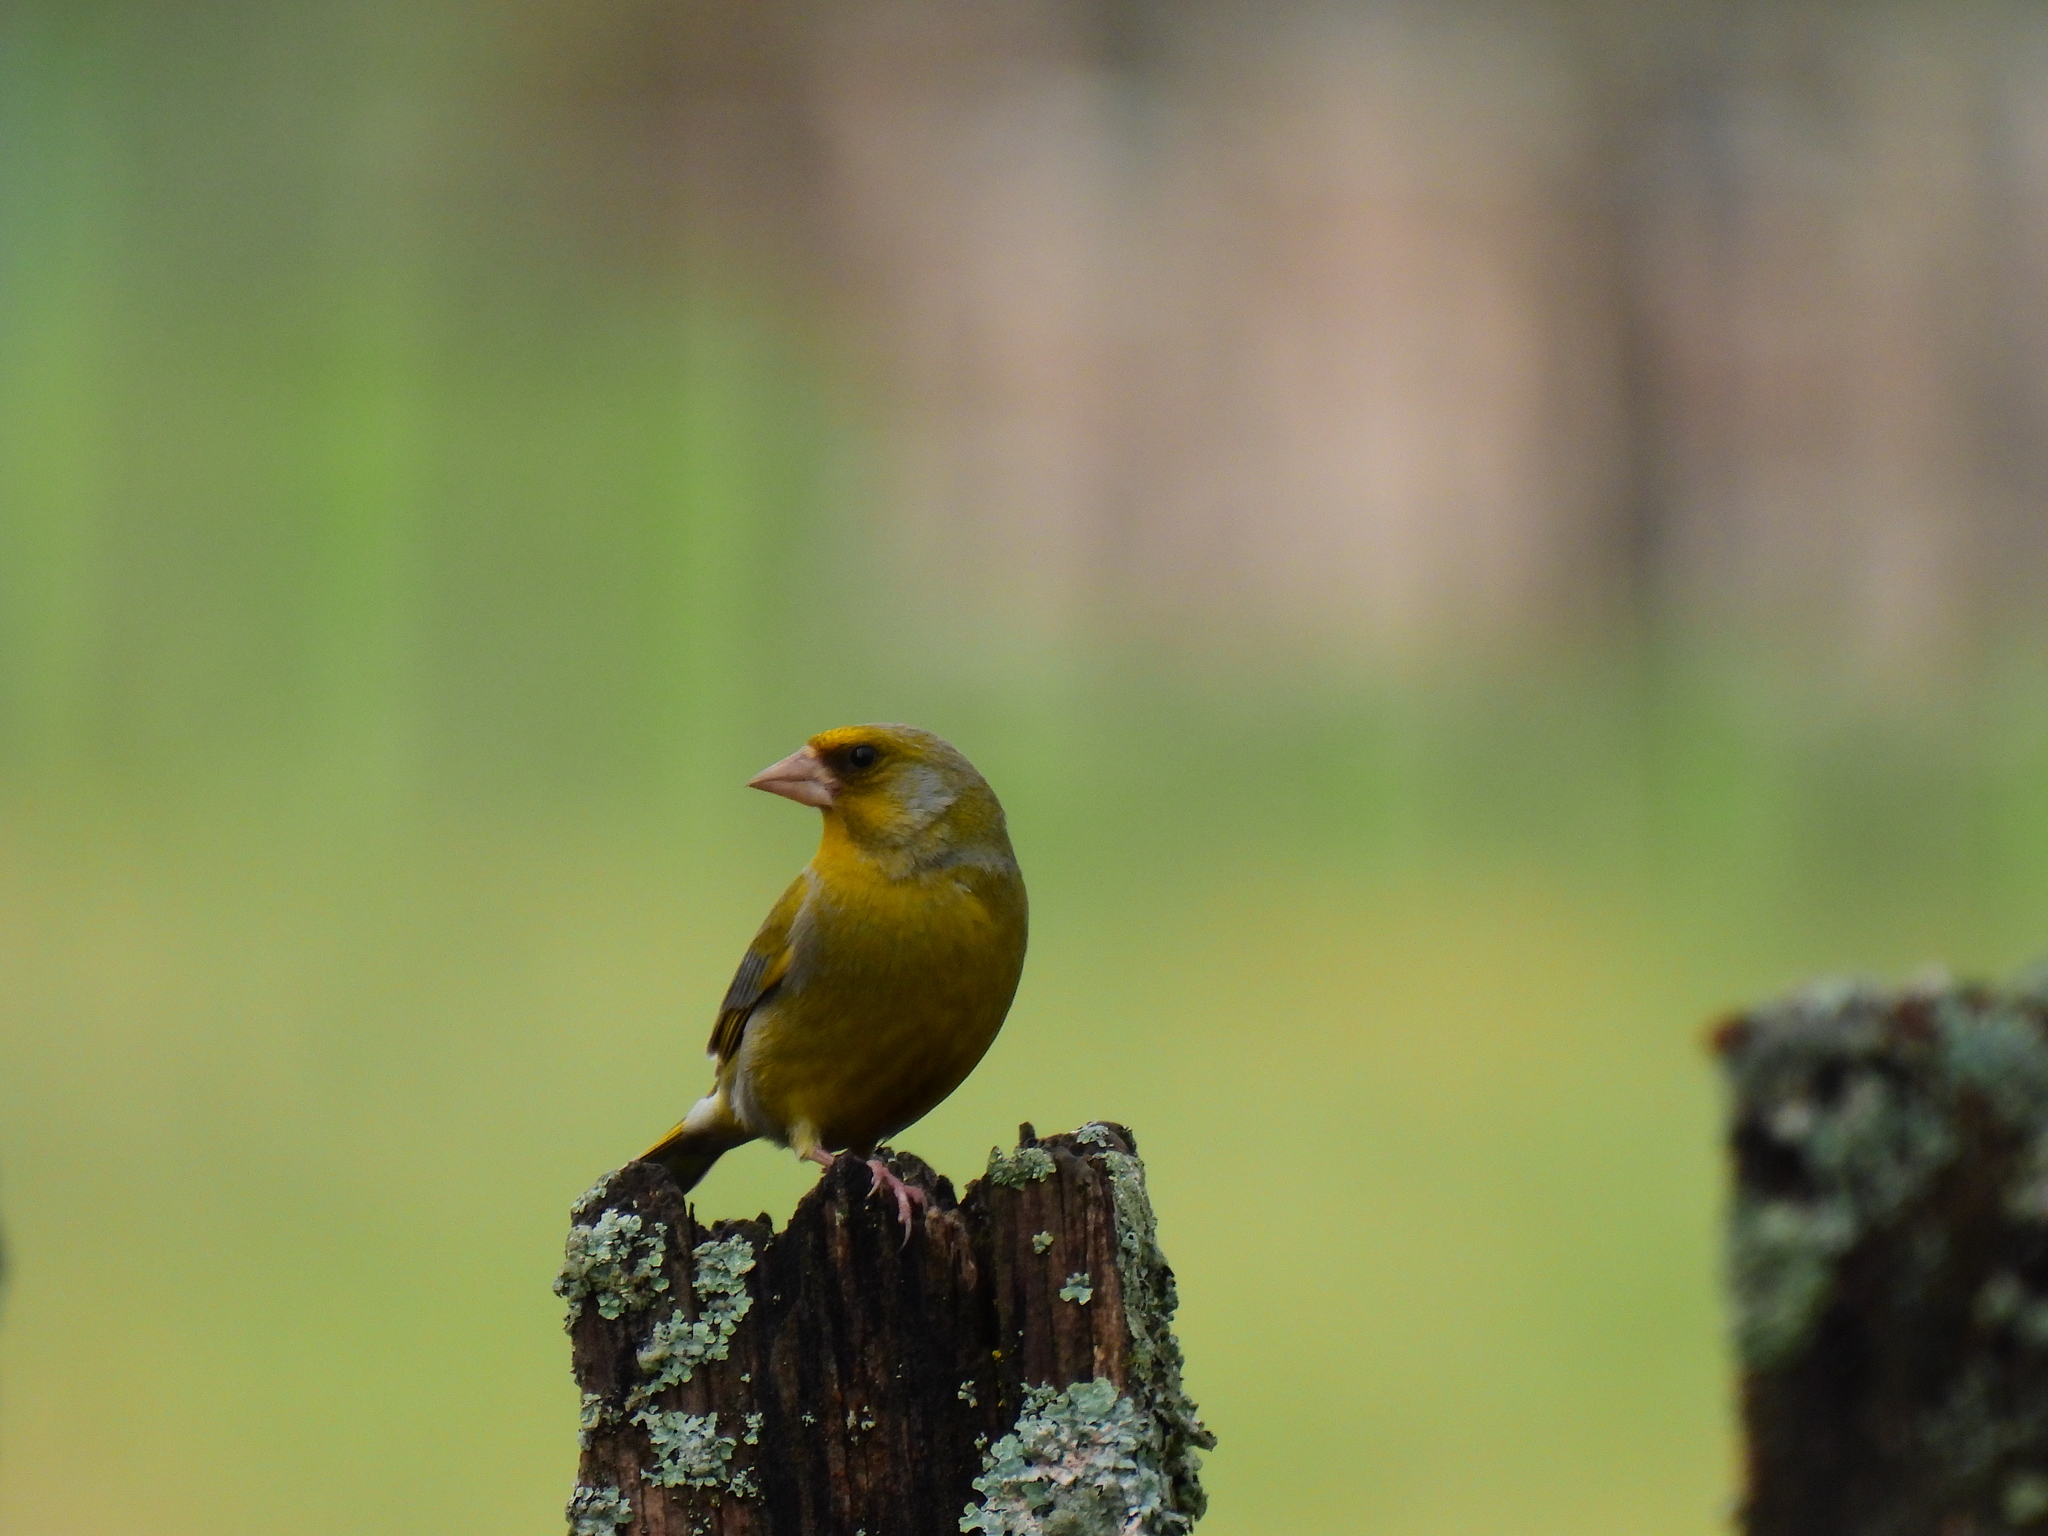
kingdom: Plantae
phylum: Tracheophyta
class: Liliopsida
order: Poales
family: Poaceae
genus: Chloris
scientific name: Chloris chloris
